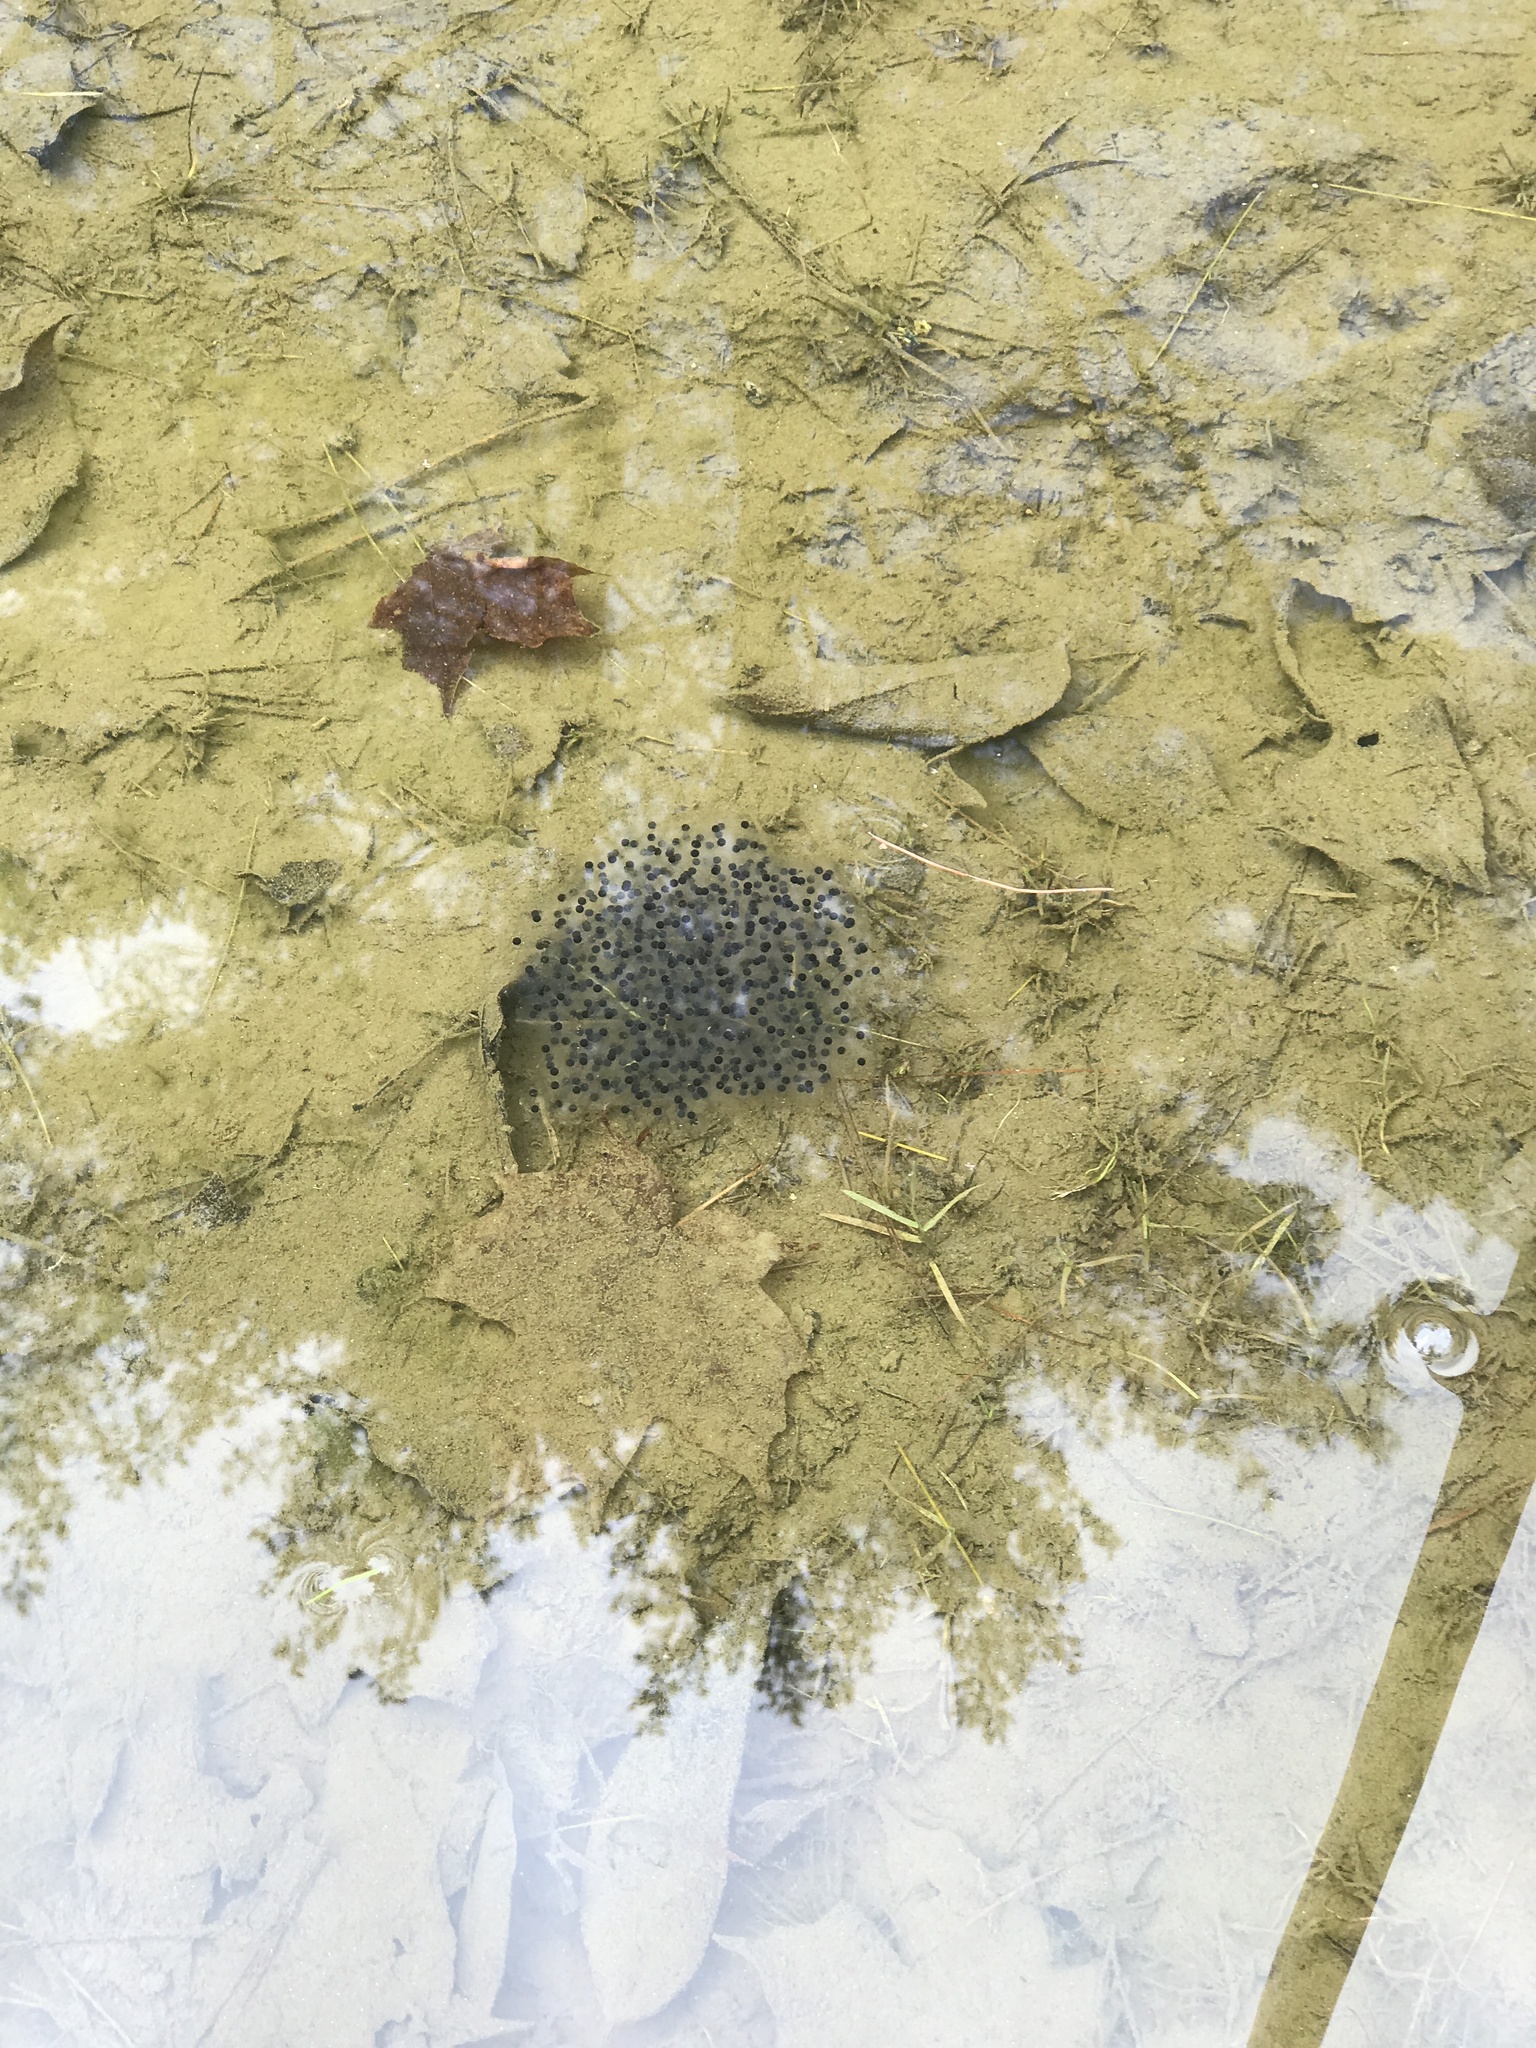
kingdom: Animalia
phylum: Chordata
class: Amphibia
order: Anura
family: Ranidae
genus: Lithobates
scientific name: Lithobates sylvaticus
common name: Wood frog
